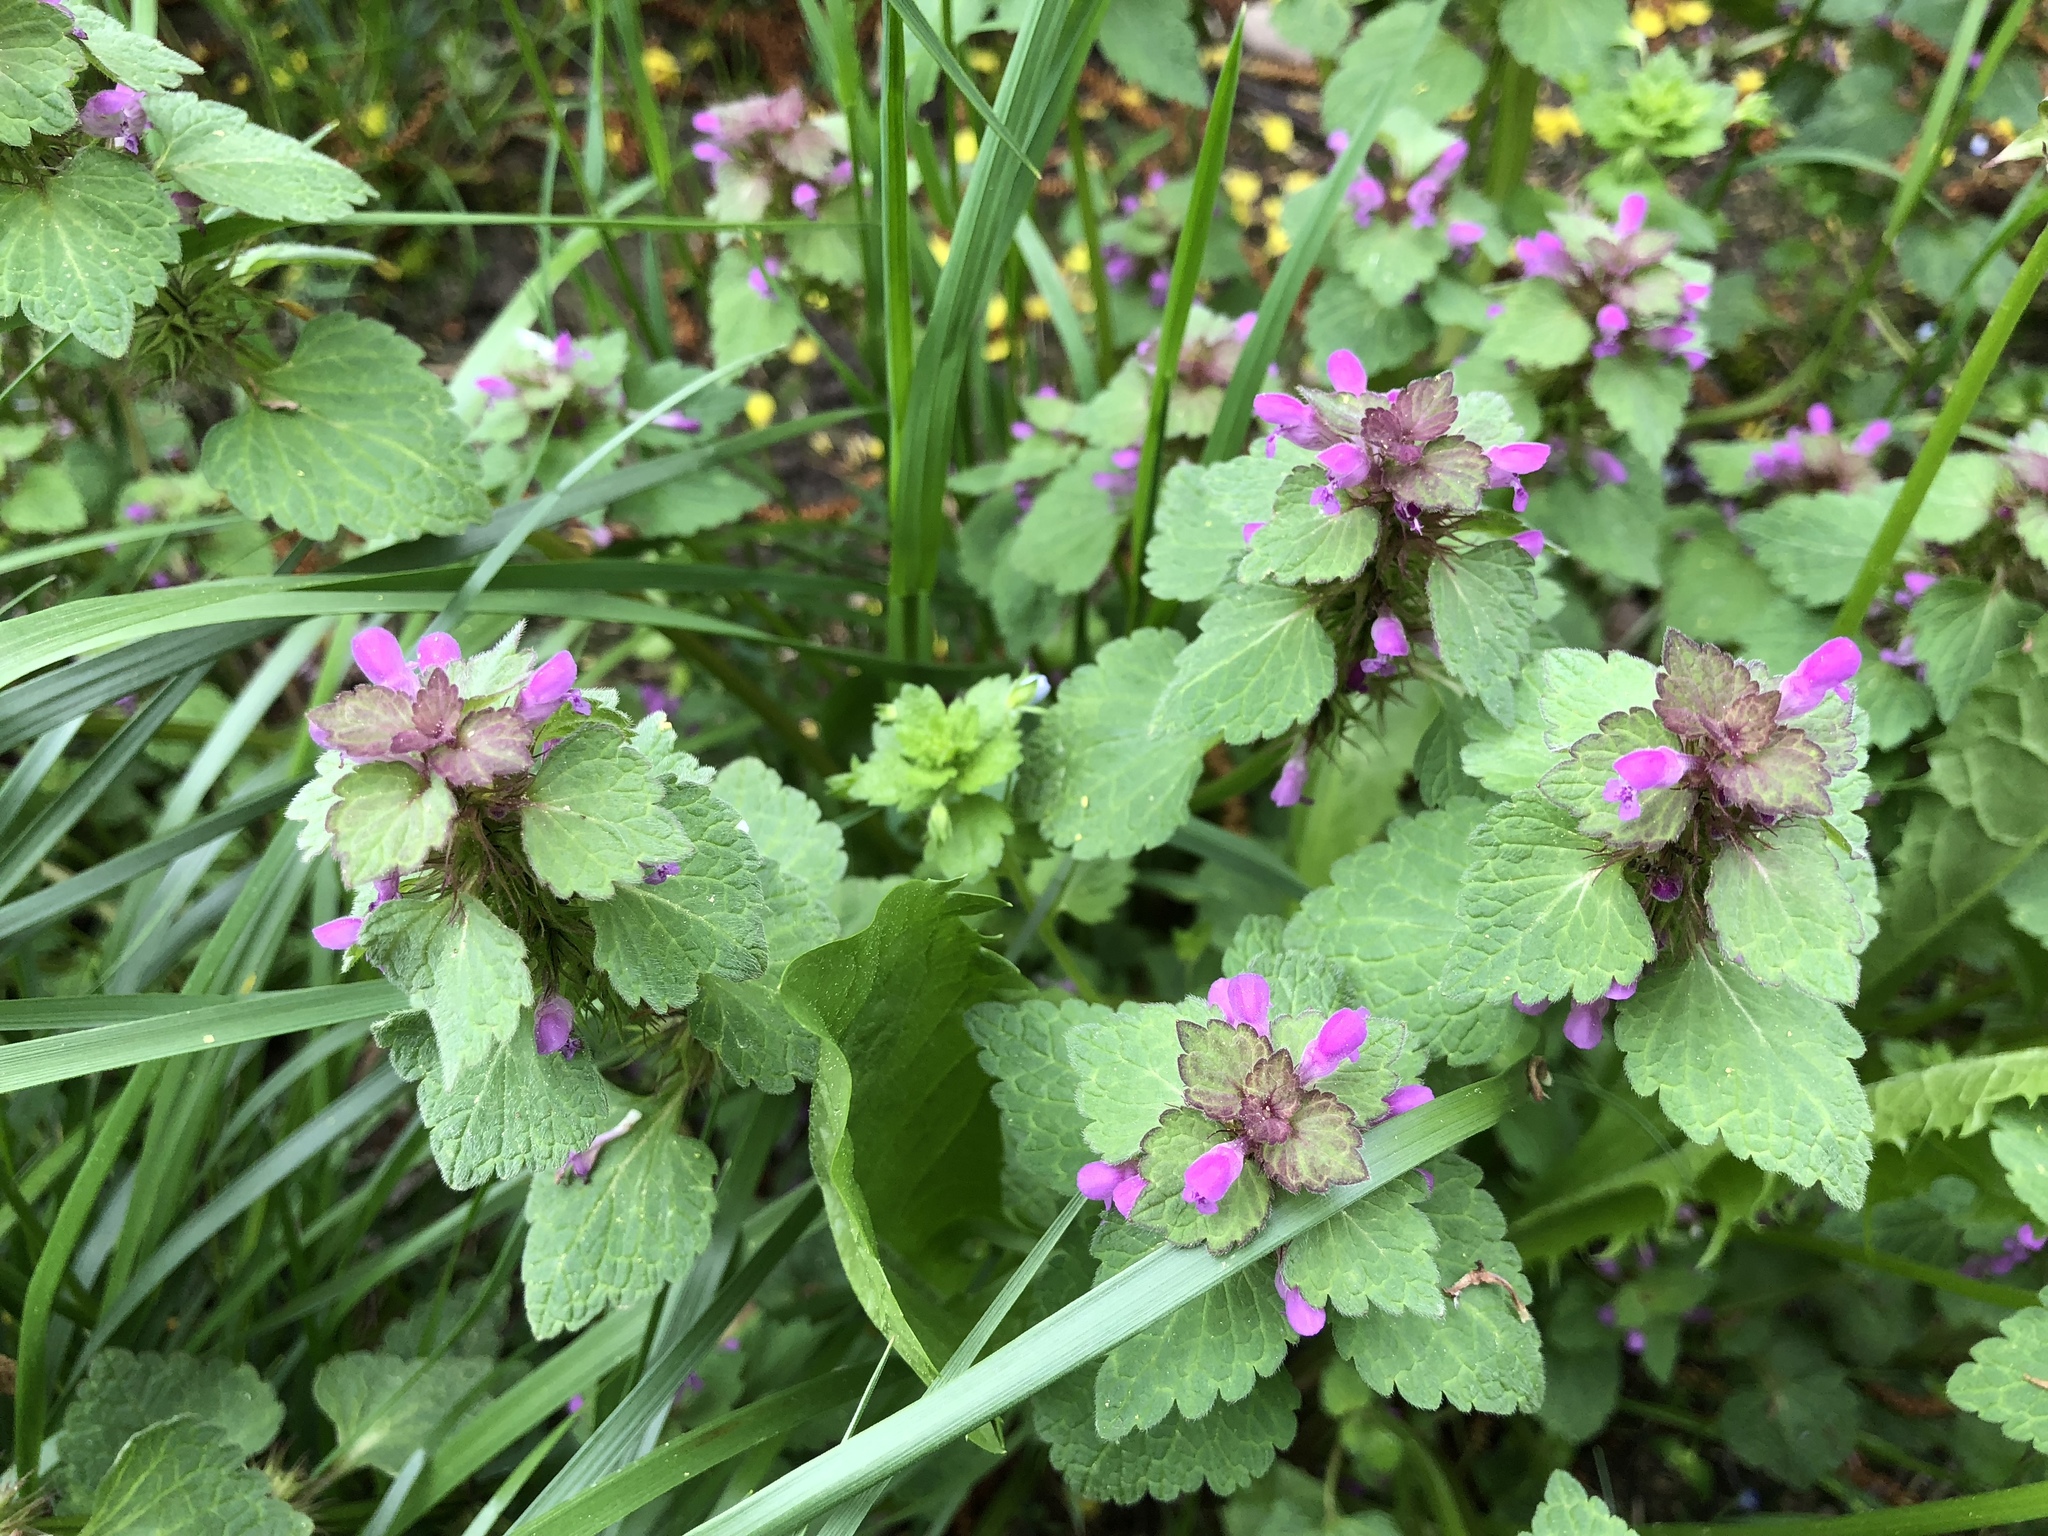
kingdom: Plantae
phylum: Tracheophyta
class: Magnoliopsida
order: Lamiales
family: Lamiaceae
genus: Lamium
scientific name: Lamium purpureum
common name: Red dead-nettle
